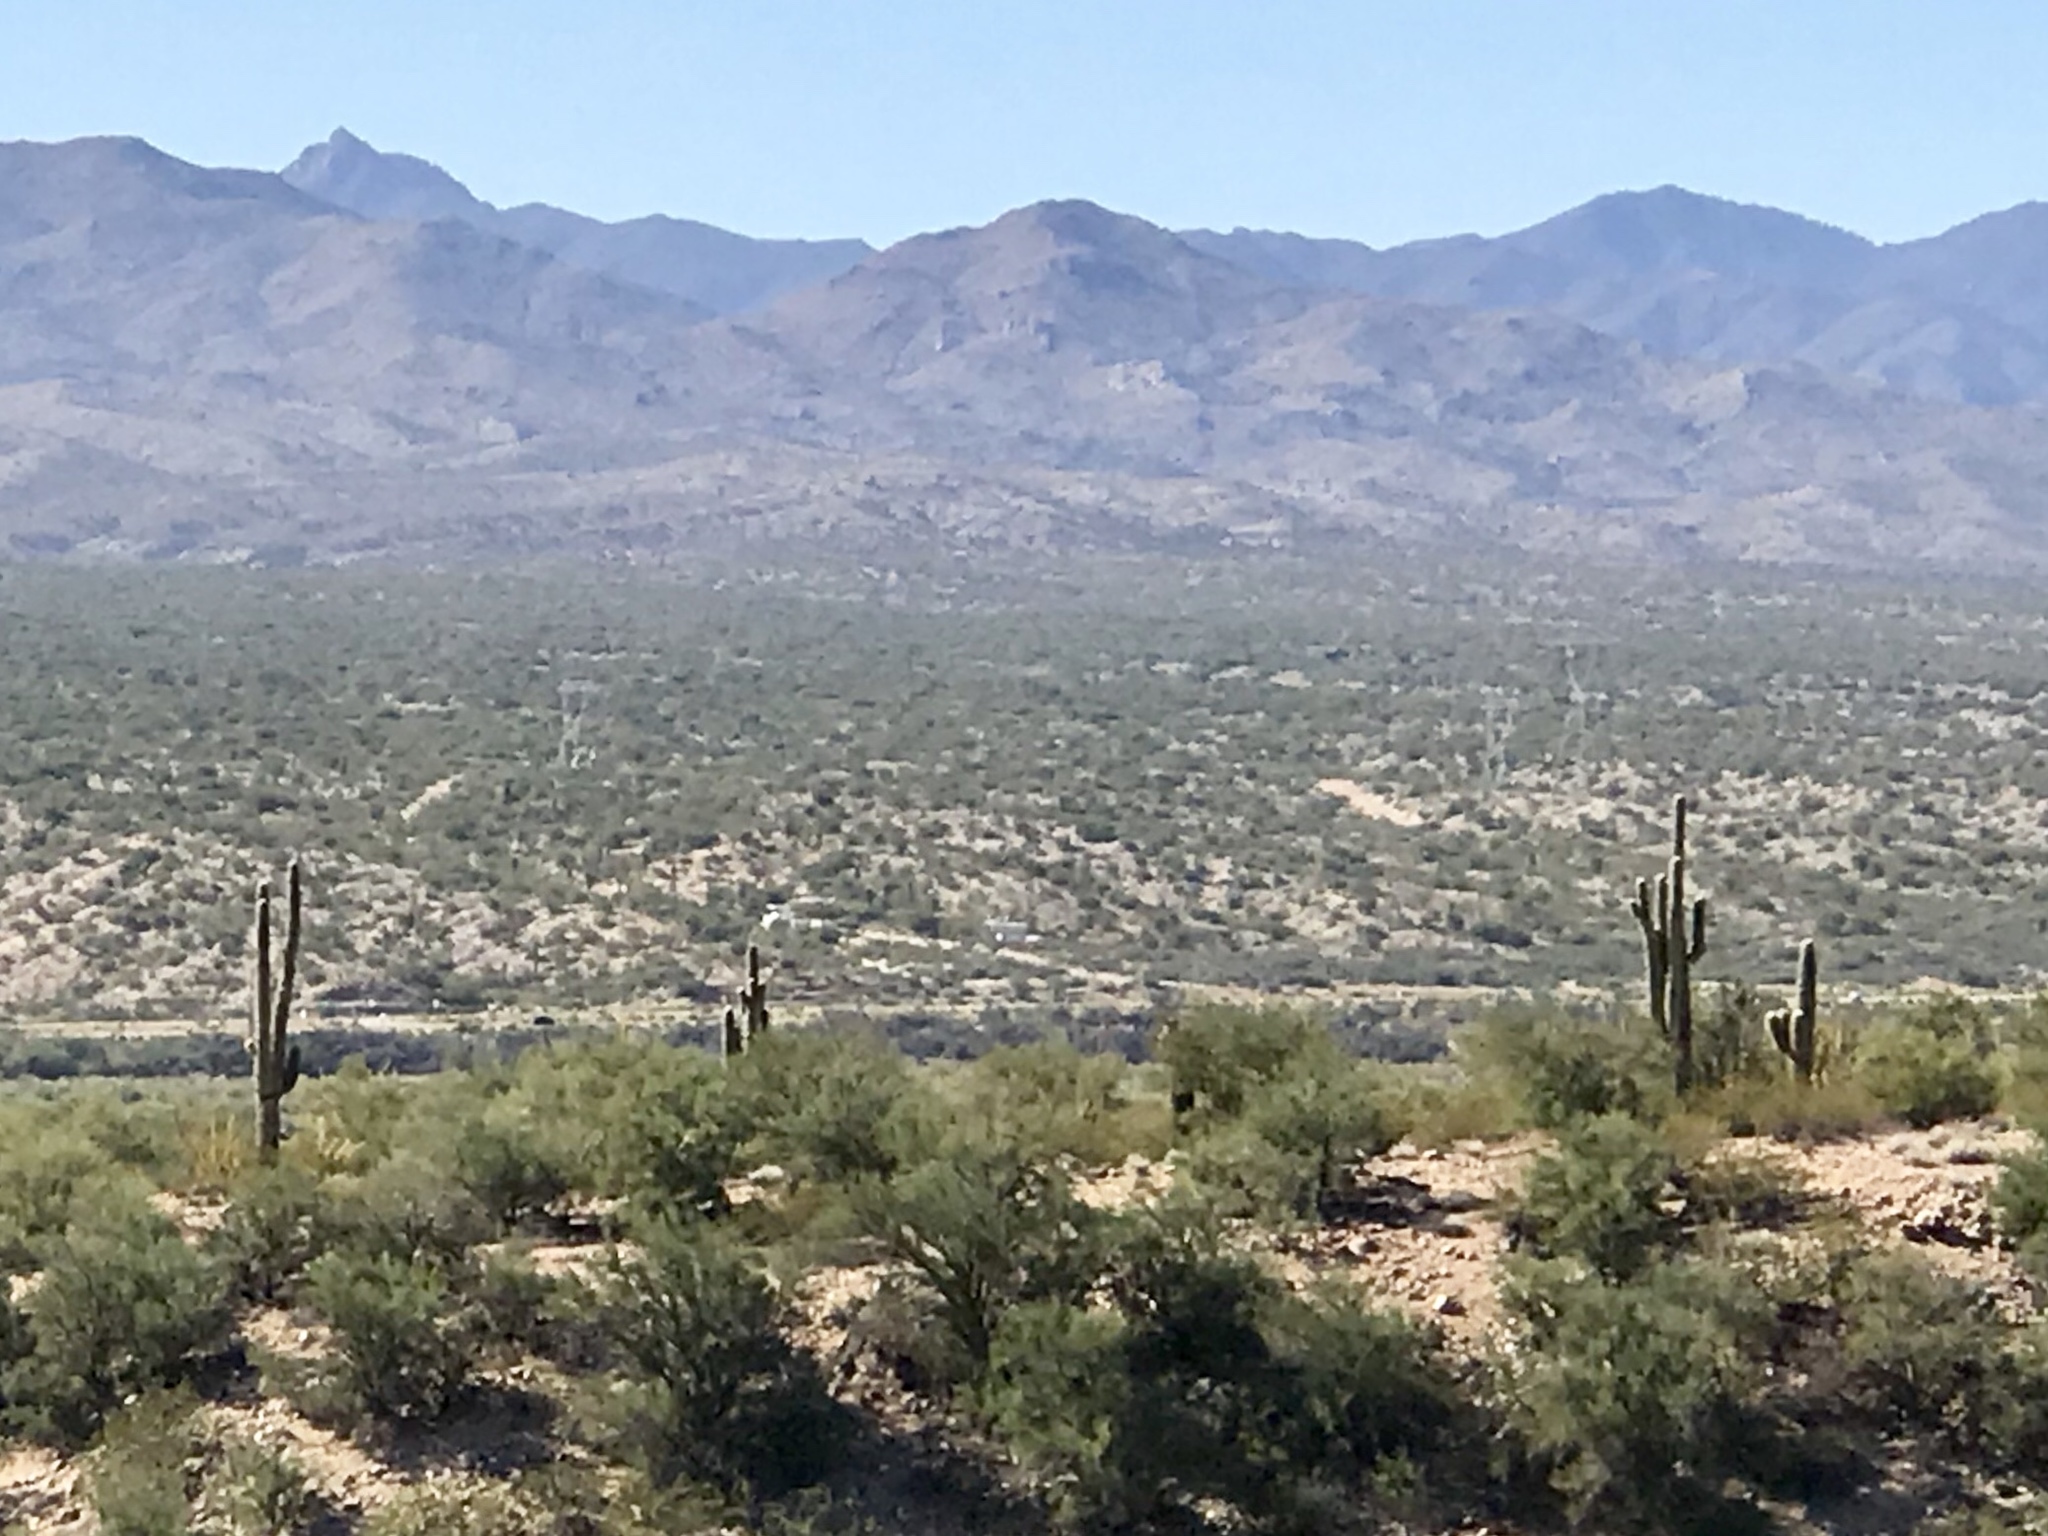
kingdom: Plantae
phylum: Tracheophyta
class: Magnoliopsida
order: Caryophyllales
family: Cactaceae
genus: Carnegiea
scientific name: Carnegiea gigantea
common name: Saguaro
